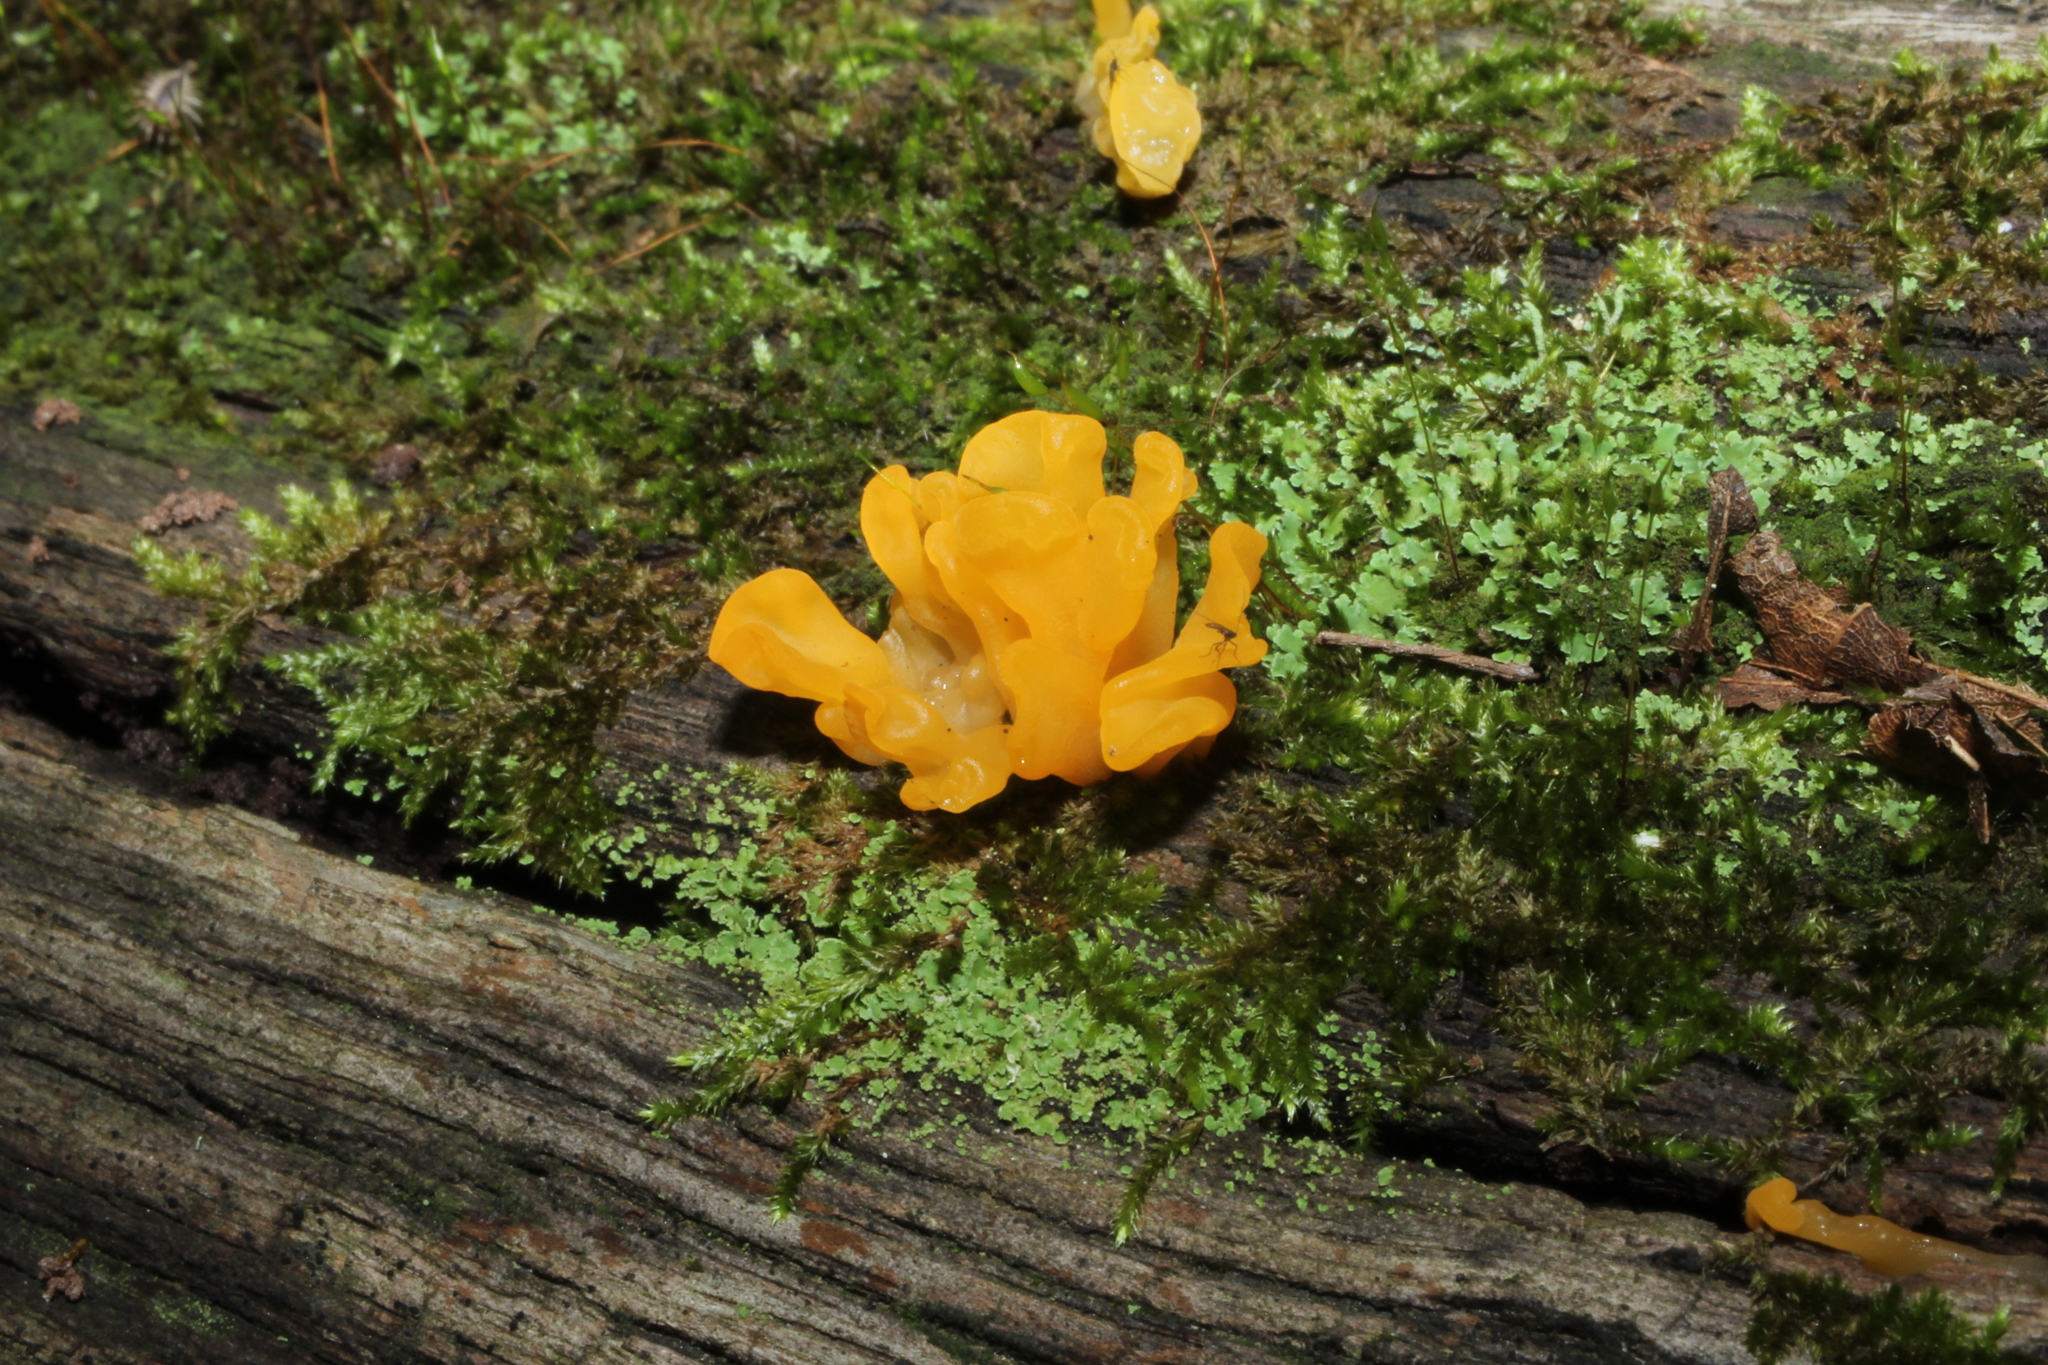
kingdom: Fungi
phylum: Basidiomycota
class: Dacrymycetes
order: Dacrymycetales
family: Dacrymycetaceae
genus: Dacrymyces
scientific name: Dacrymyces spathularius
